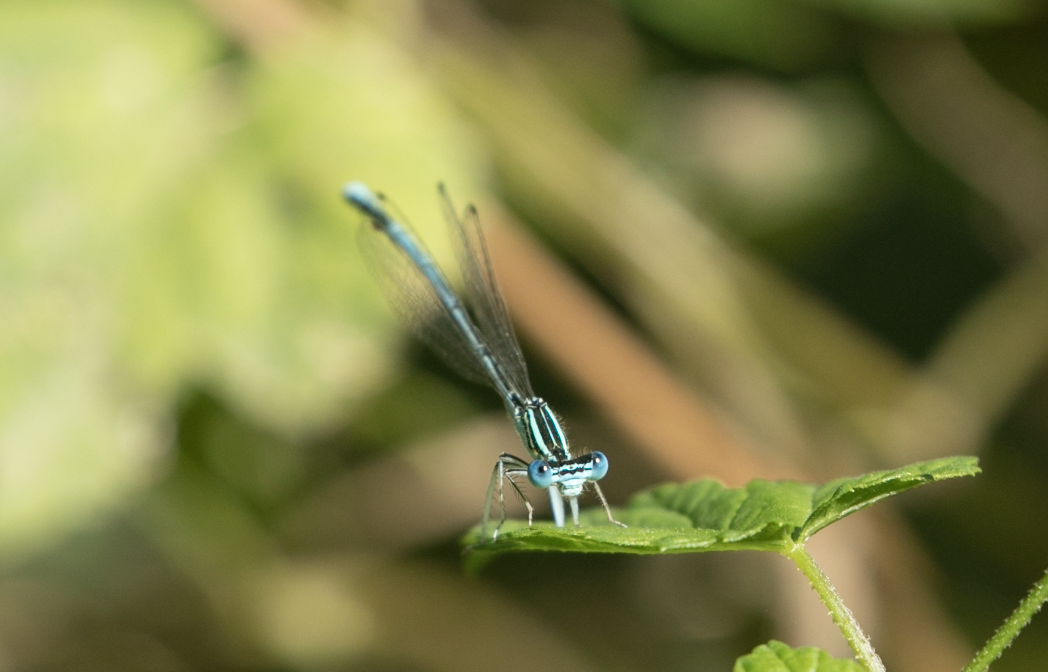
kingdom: Animalia
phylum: Arthropoda
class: Insecta
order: Odonata
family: Platycnemididae
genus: Platycnemis
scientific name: Platycnemis pennipes
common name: White-legged damselfly
